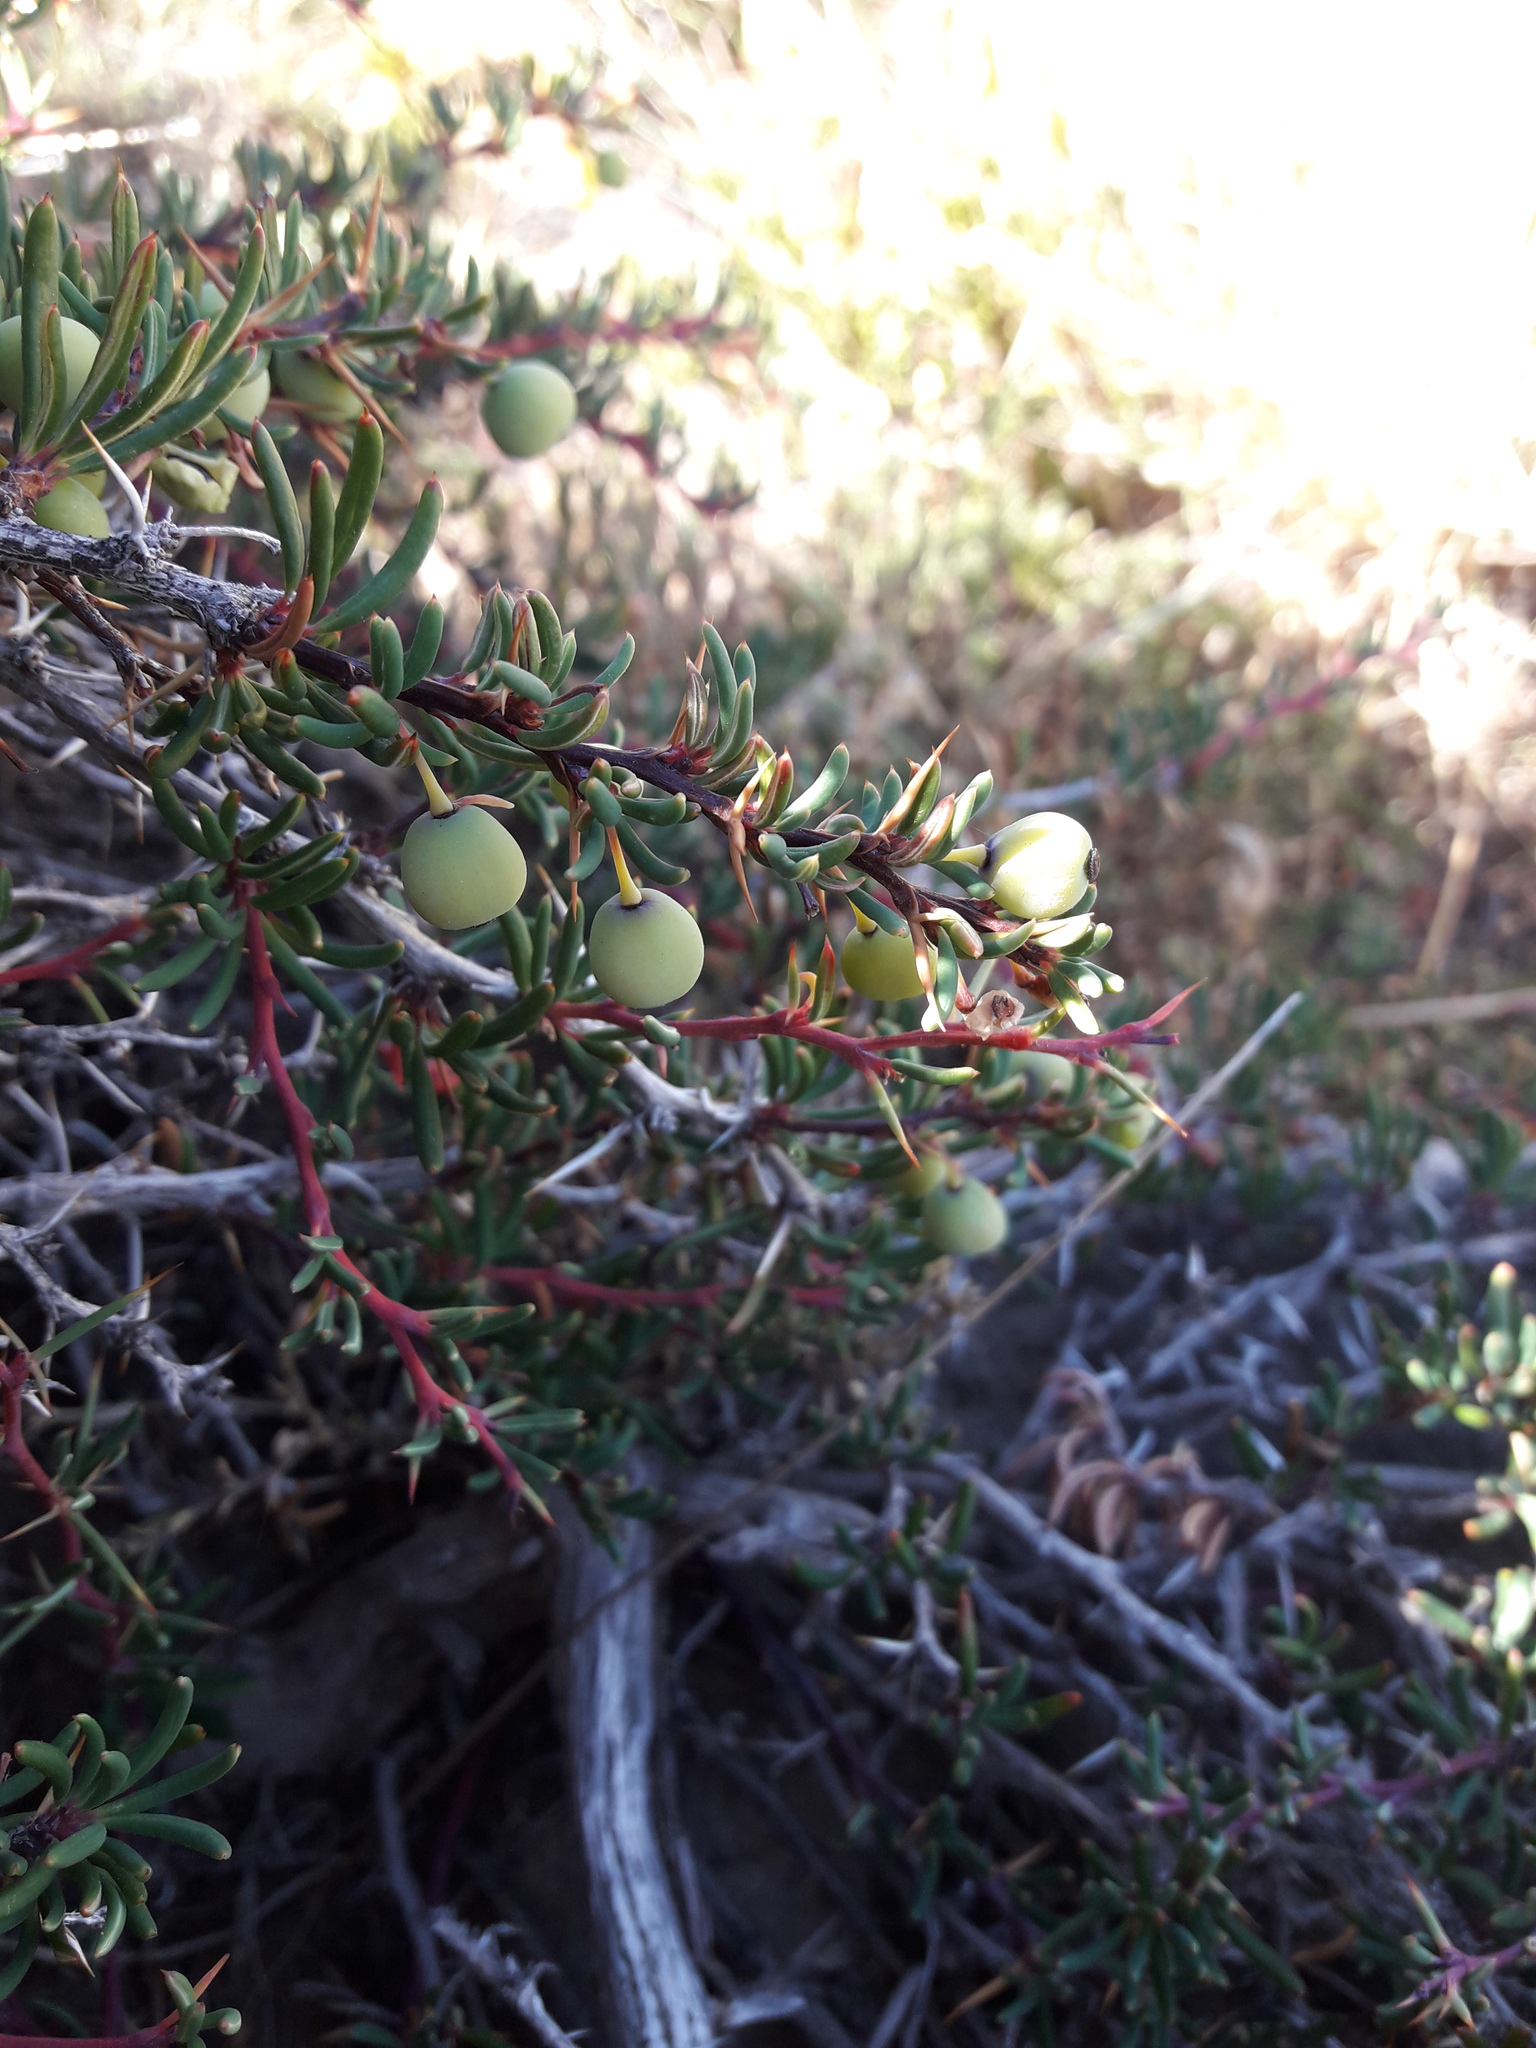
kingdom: Plantae
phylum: Tracheophyta
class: Magnoliopsida
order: Ranunculales
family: Berberidaceae
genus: Berberis
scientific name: Berberis empetrifolia
